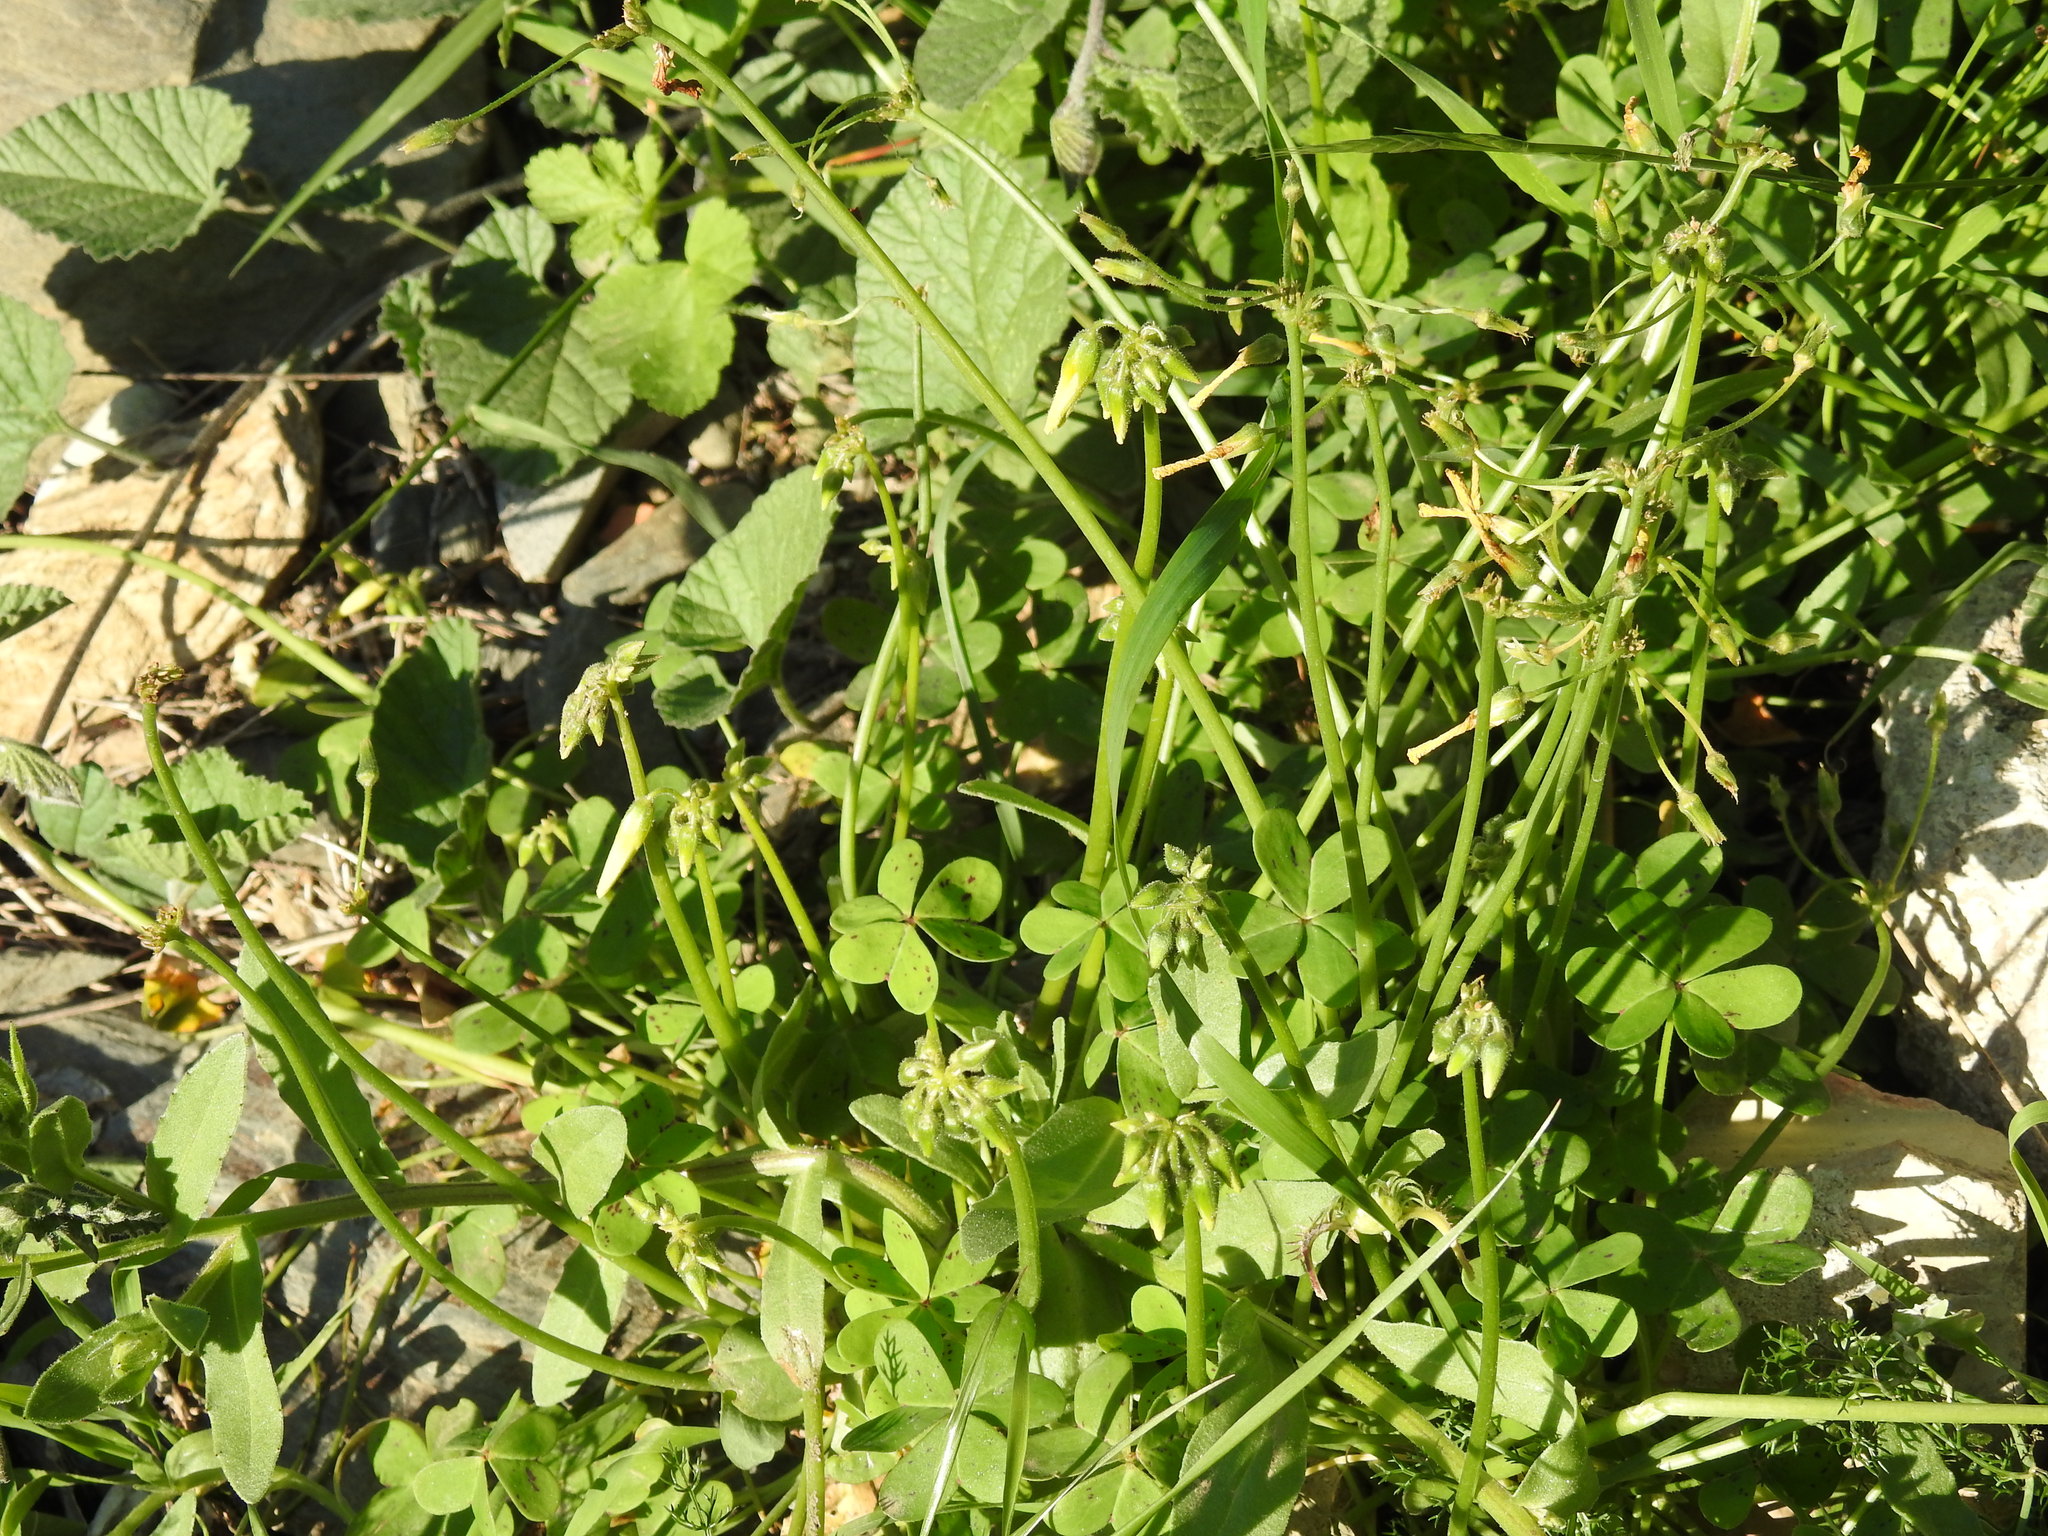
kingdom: Plantae
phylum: Tracheophyta
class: Magnoliopsida
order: Oxalidales
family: Oxalidaceae
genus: Oxalis
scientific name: Oxalis pes-caprae
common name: Bermuda-buttercup
